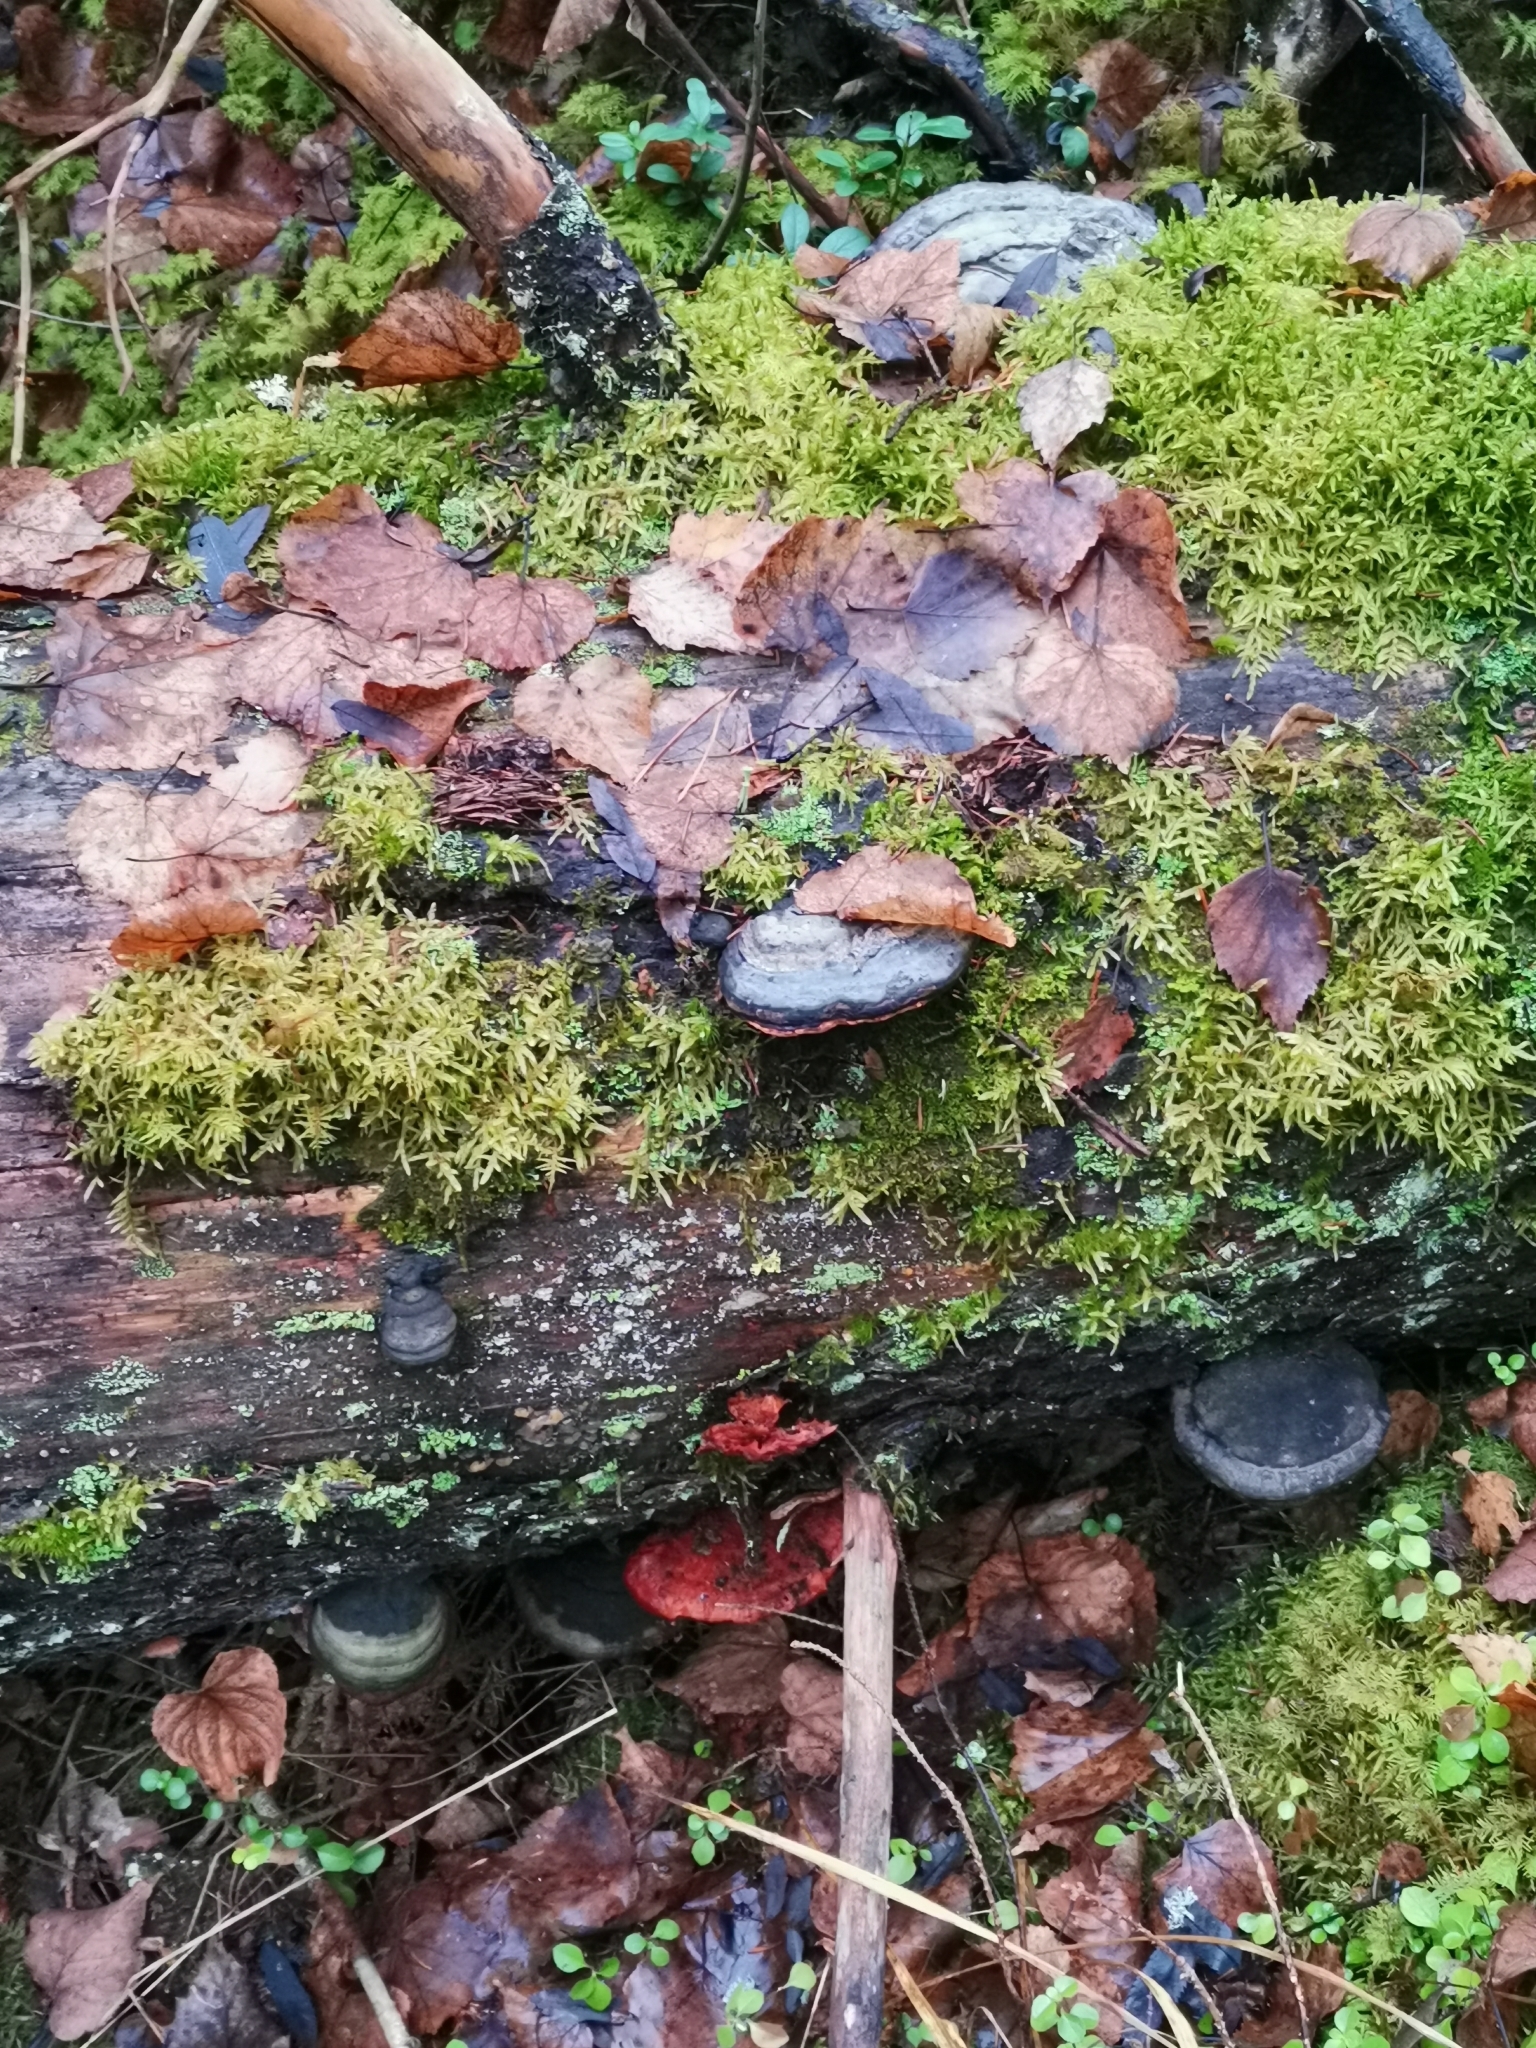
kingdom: Fungi
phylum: Basidiomycota
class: Agaricomycetes
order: Polyporales
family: Pycnoporellaceae
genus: Pycnoporellus
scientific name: Pycnoporellus fulgens
